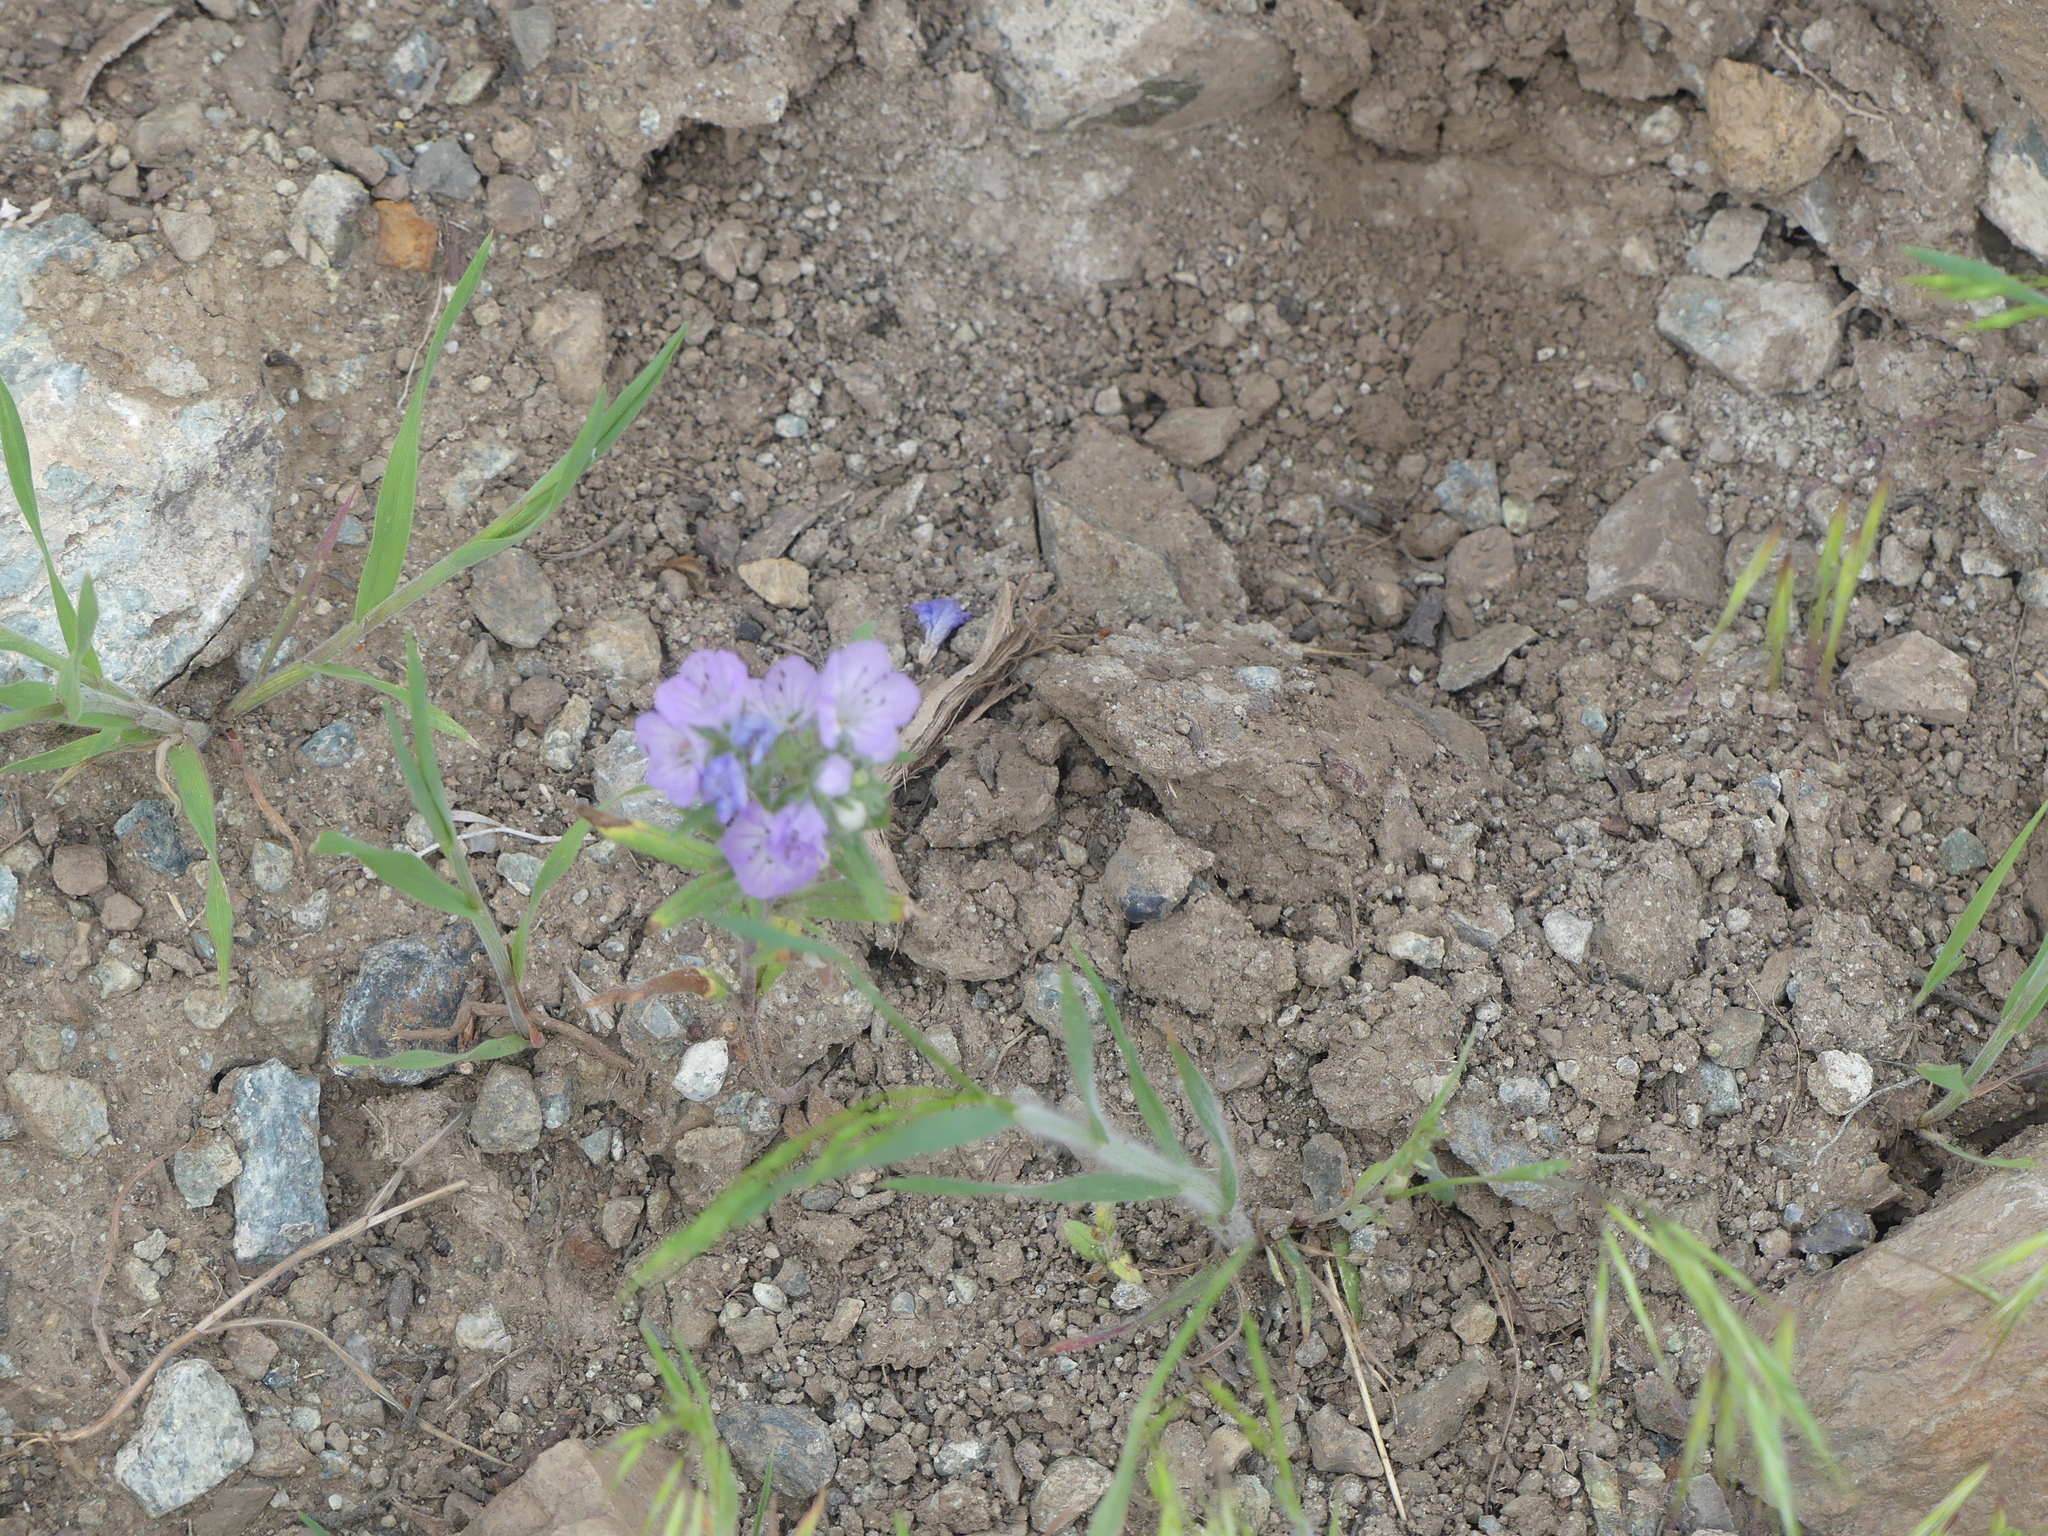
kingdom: Plantae
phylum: Tracheophyta
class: Magnoliopsida
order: Boraginales
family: Hydrophyllaceae
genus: Phacelia
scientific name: Phacelia linearis
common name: Linear-leaved phacelia
